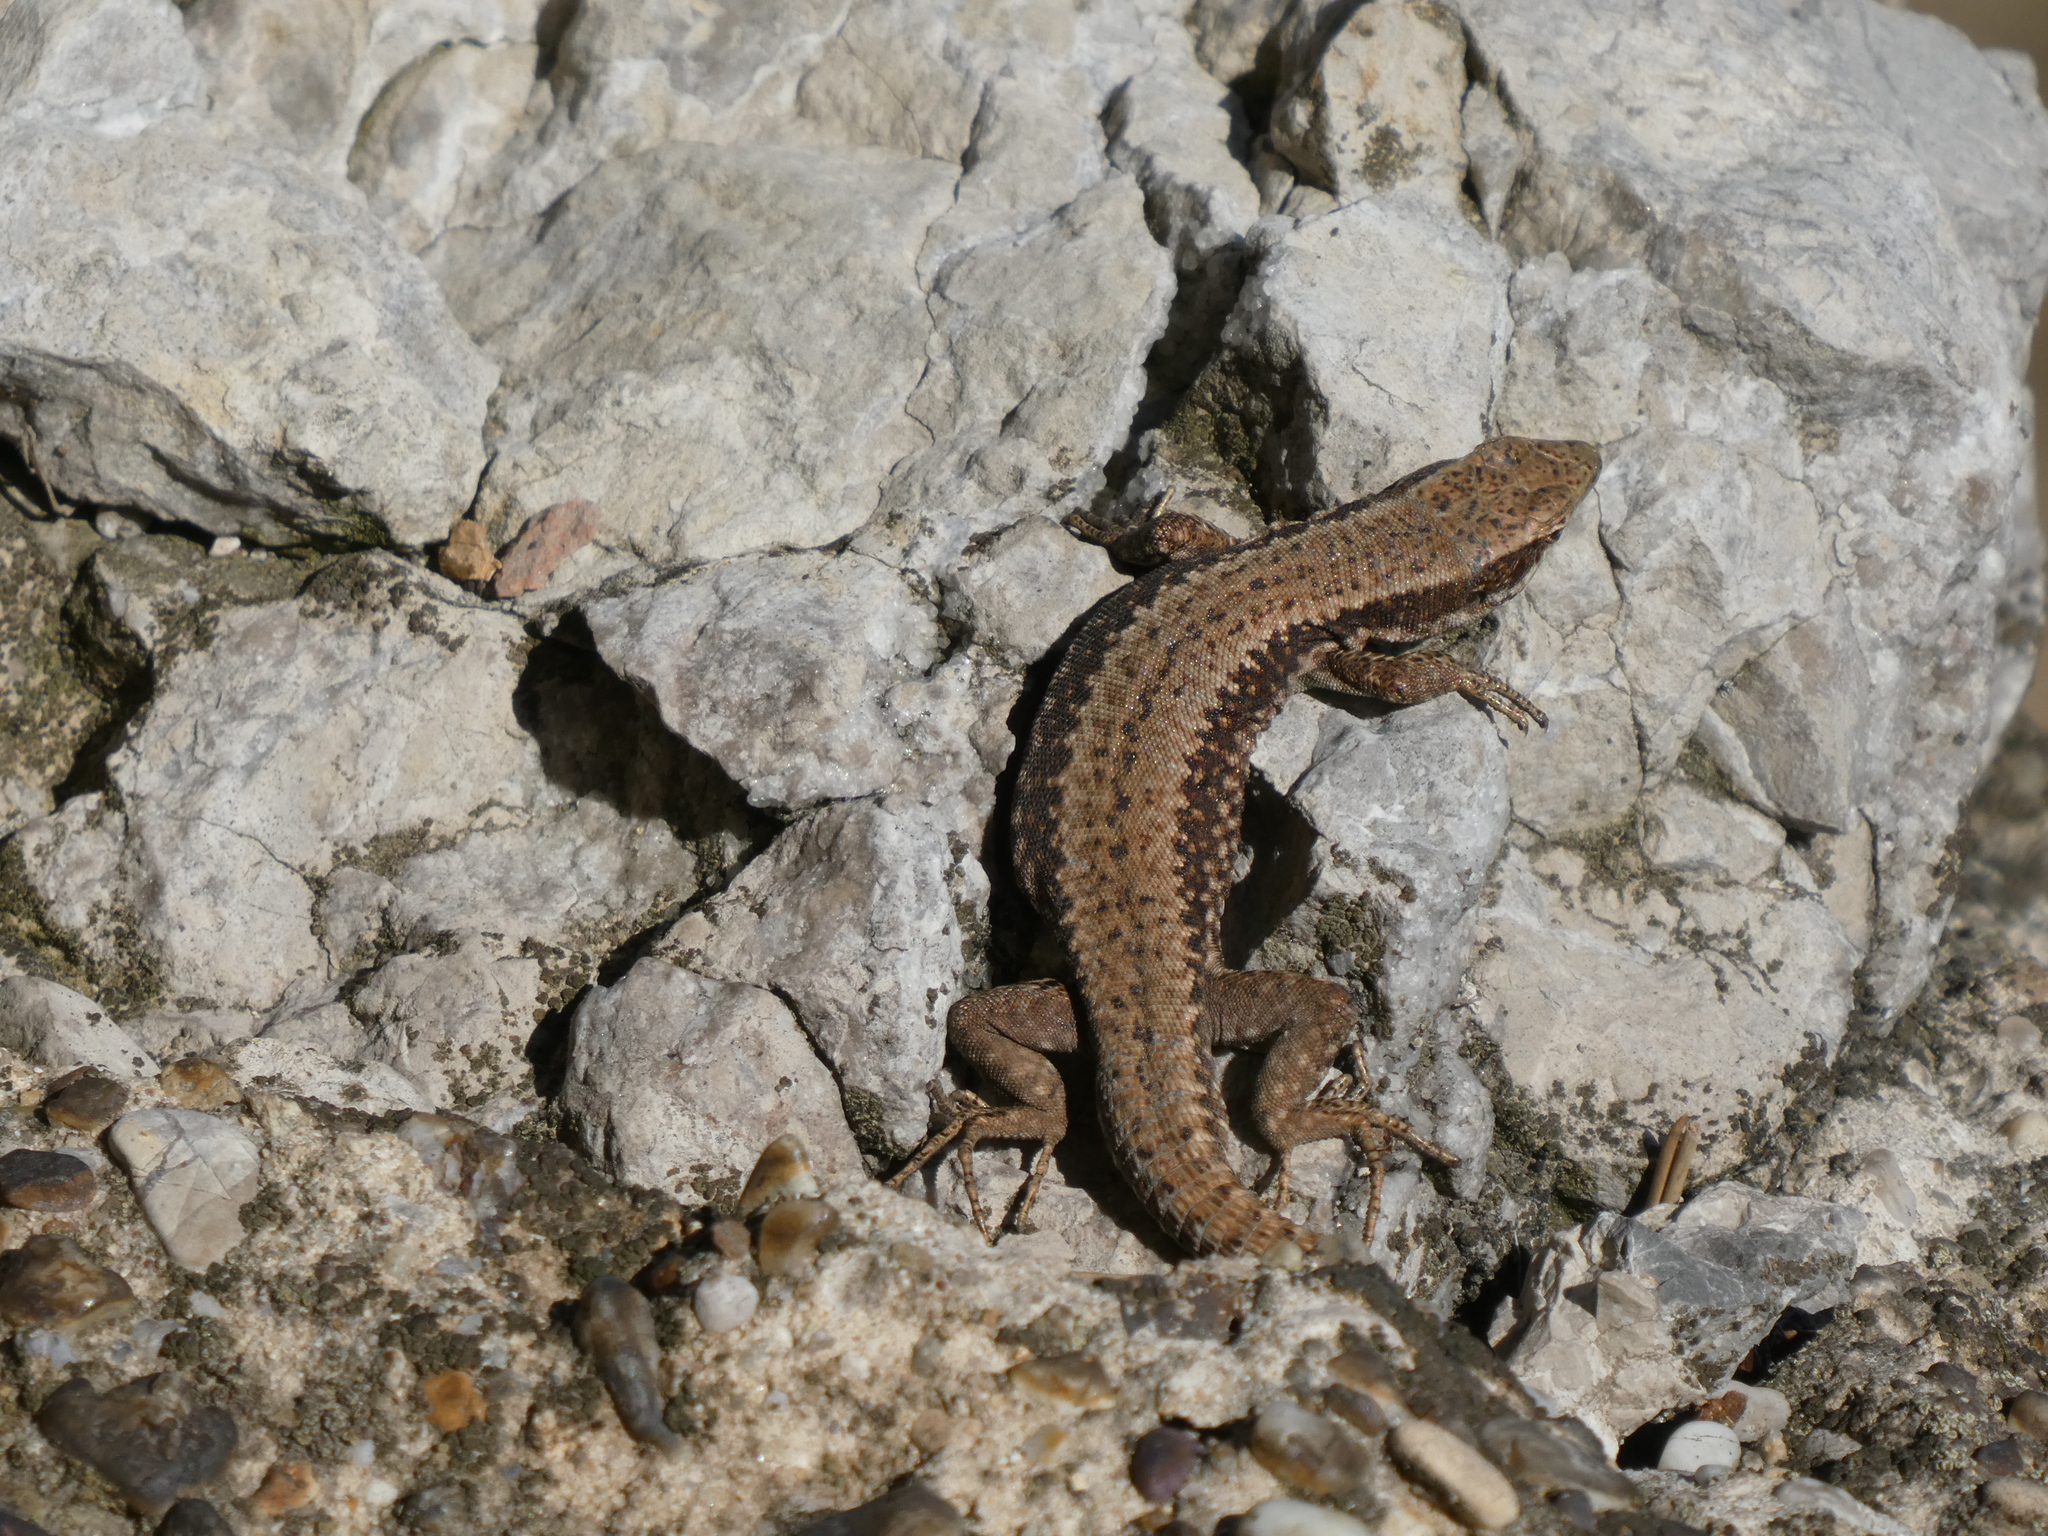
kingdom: Animalia
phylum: Chordata
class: Squamata
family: Lacertidae
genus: Podarcis
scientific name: Podarcis muralis
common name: Common wall lizard
